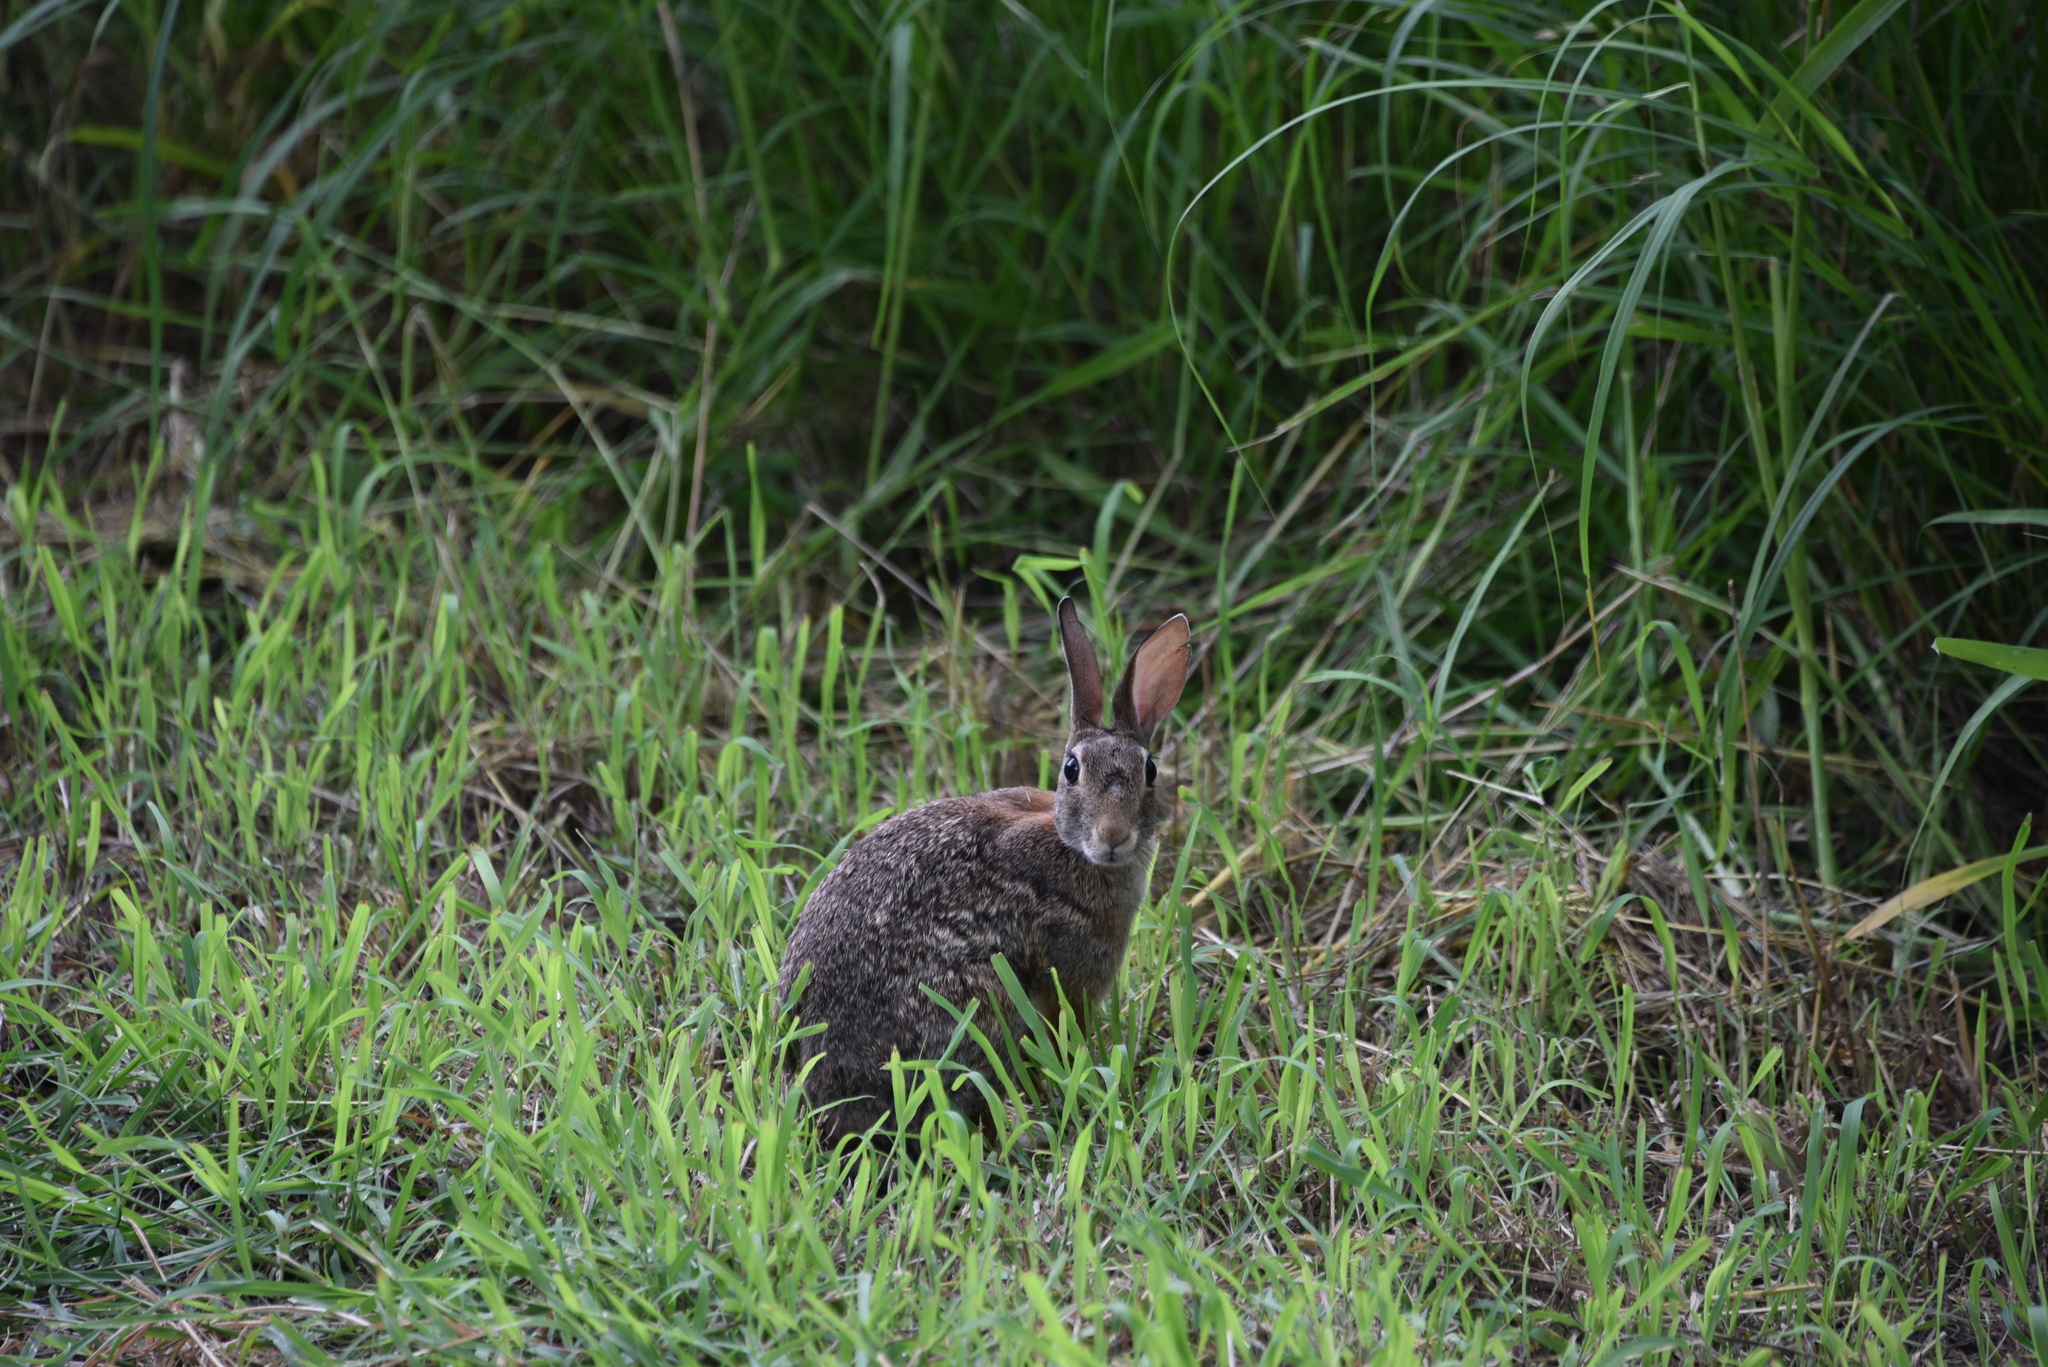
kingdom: Animalia
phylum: Chordata
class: Mammalia
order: Lagomorpha
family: Leporidae
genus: Sylvilagus
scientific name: Sylvilagus floridanus
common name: Eastern cottontail
